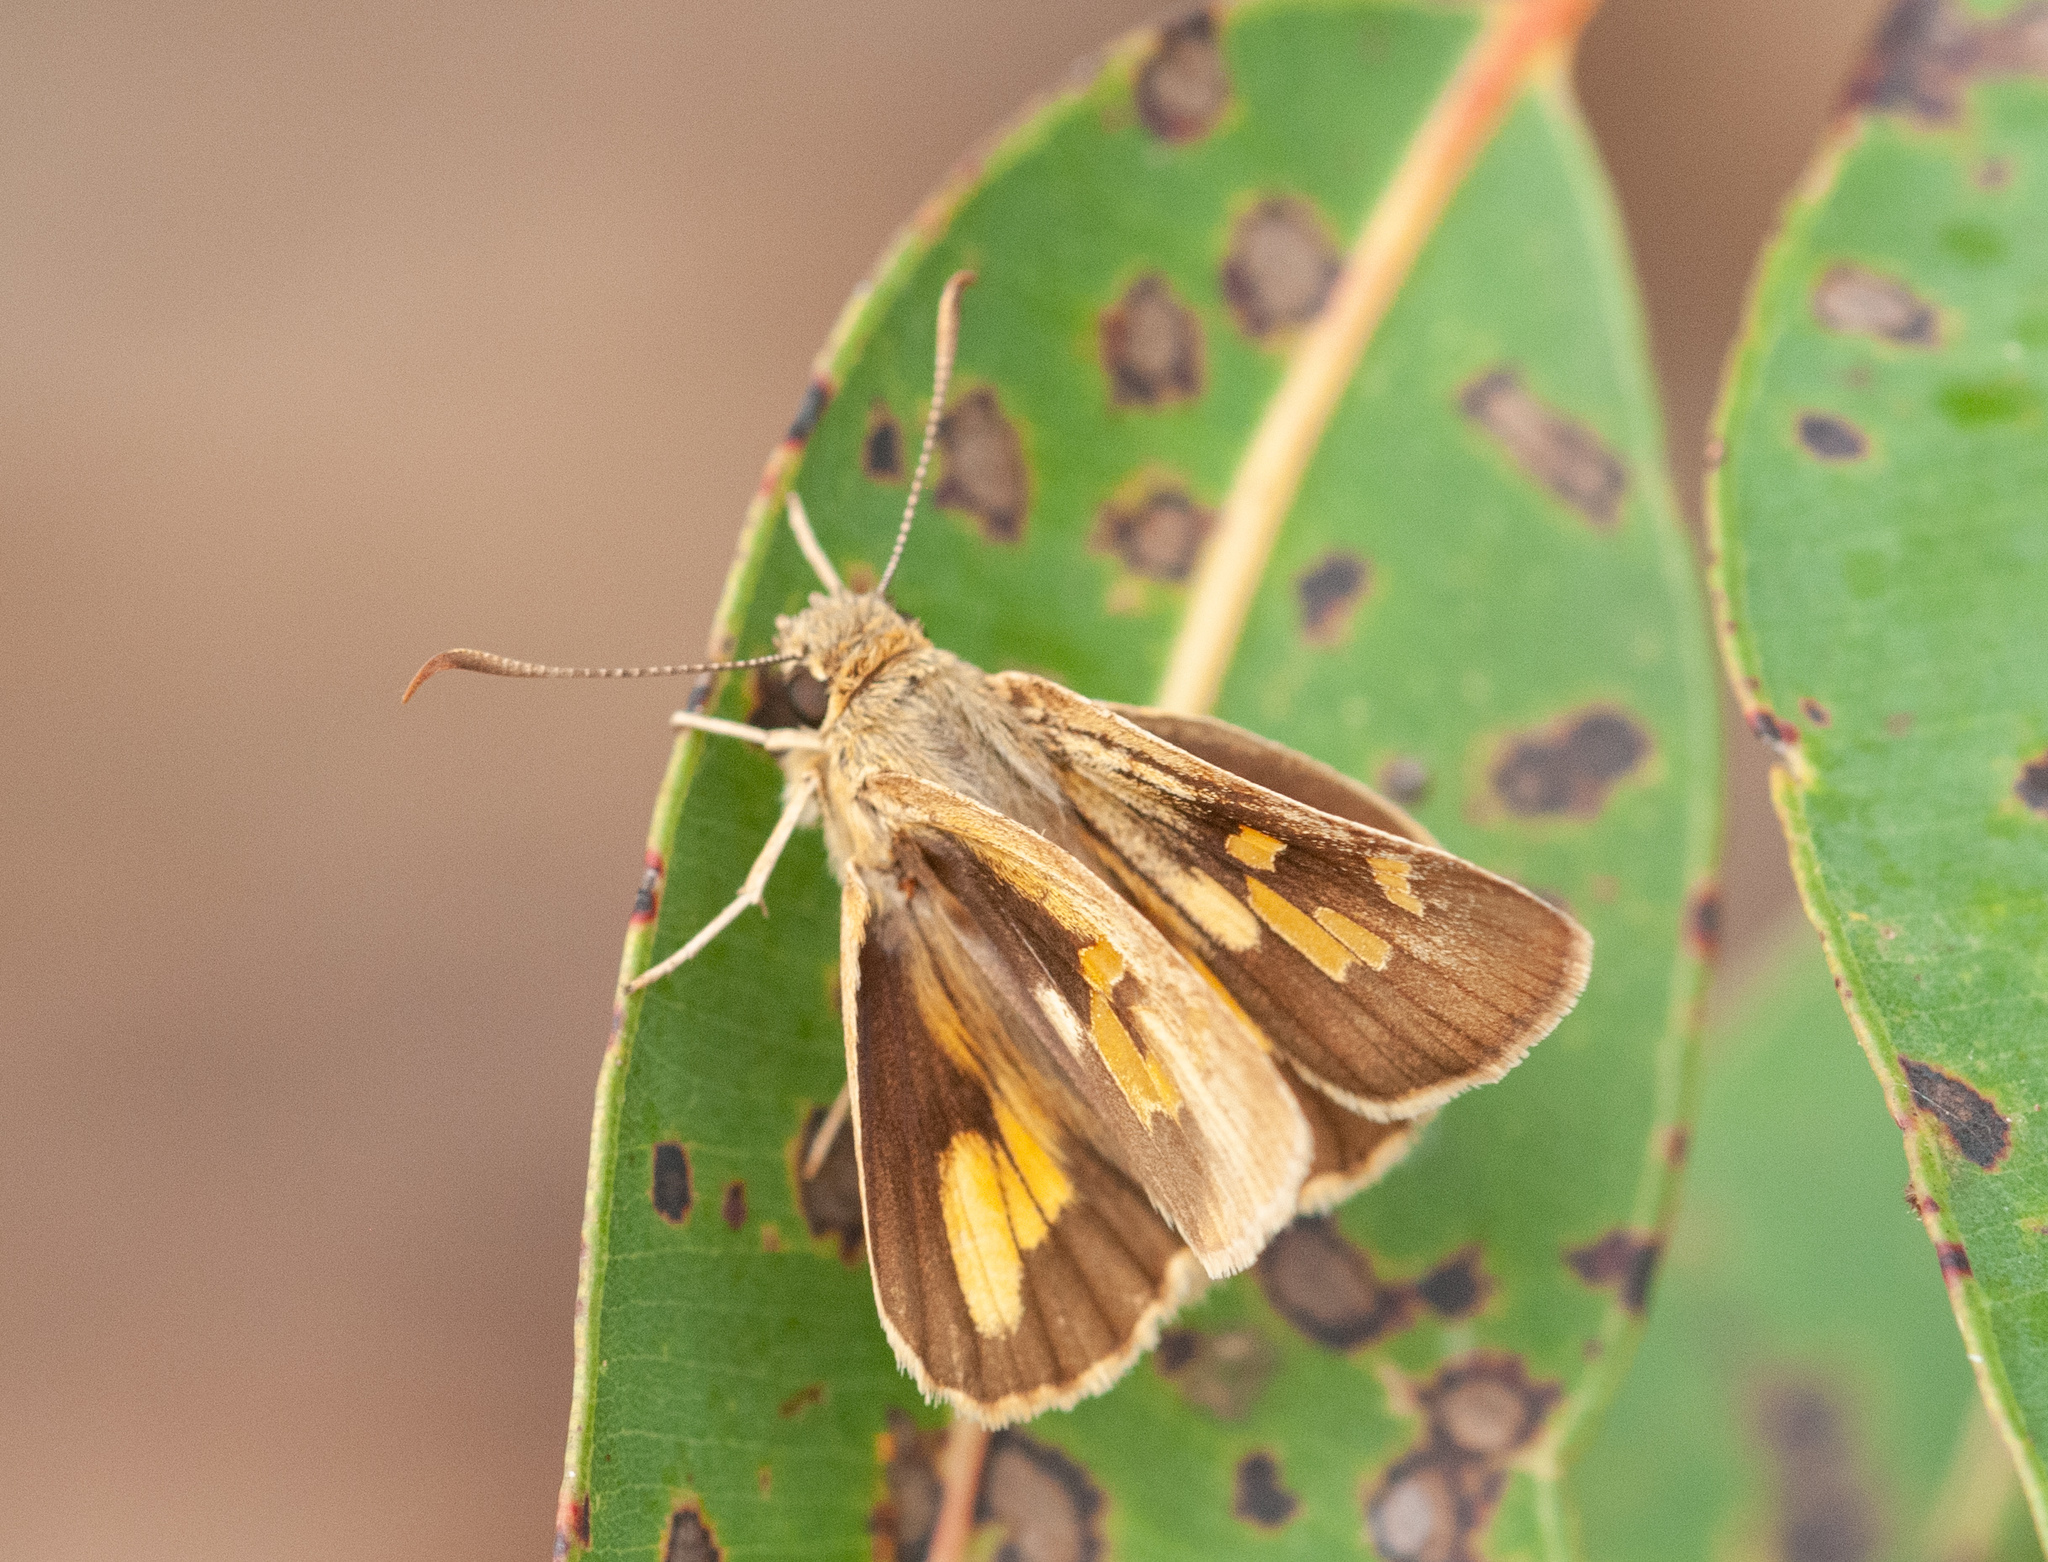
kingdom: Animalia
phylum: Arthropoda
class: Insecta
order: Lepidoptera
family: Hesperiidae
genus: Trapezites
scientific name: Trapezites eliena
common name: Eliena skipper
